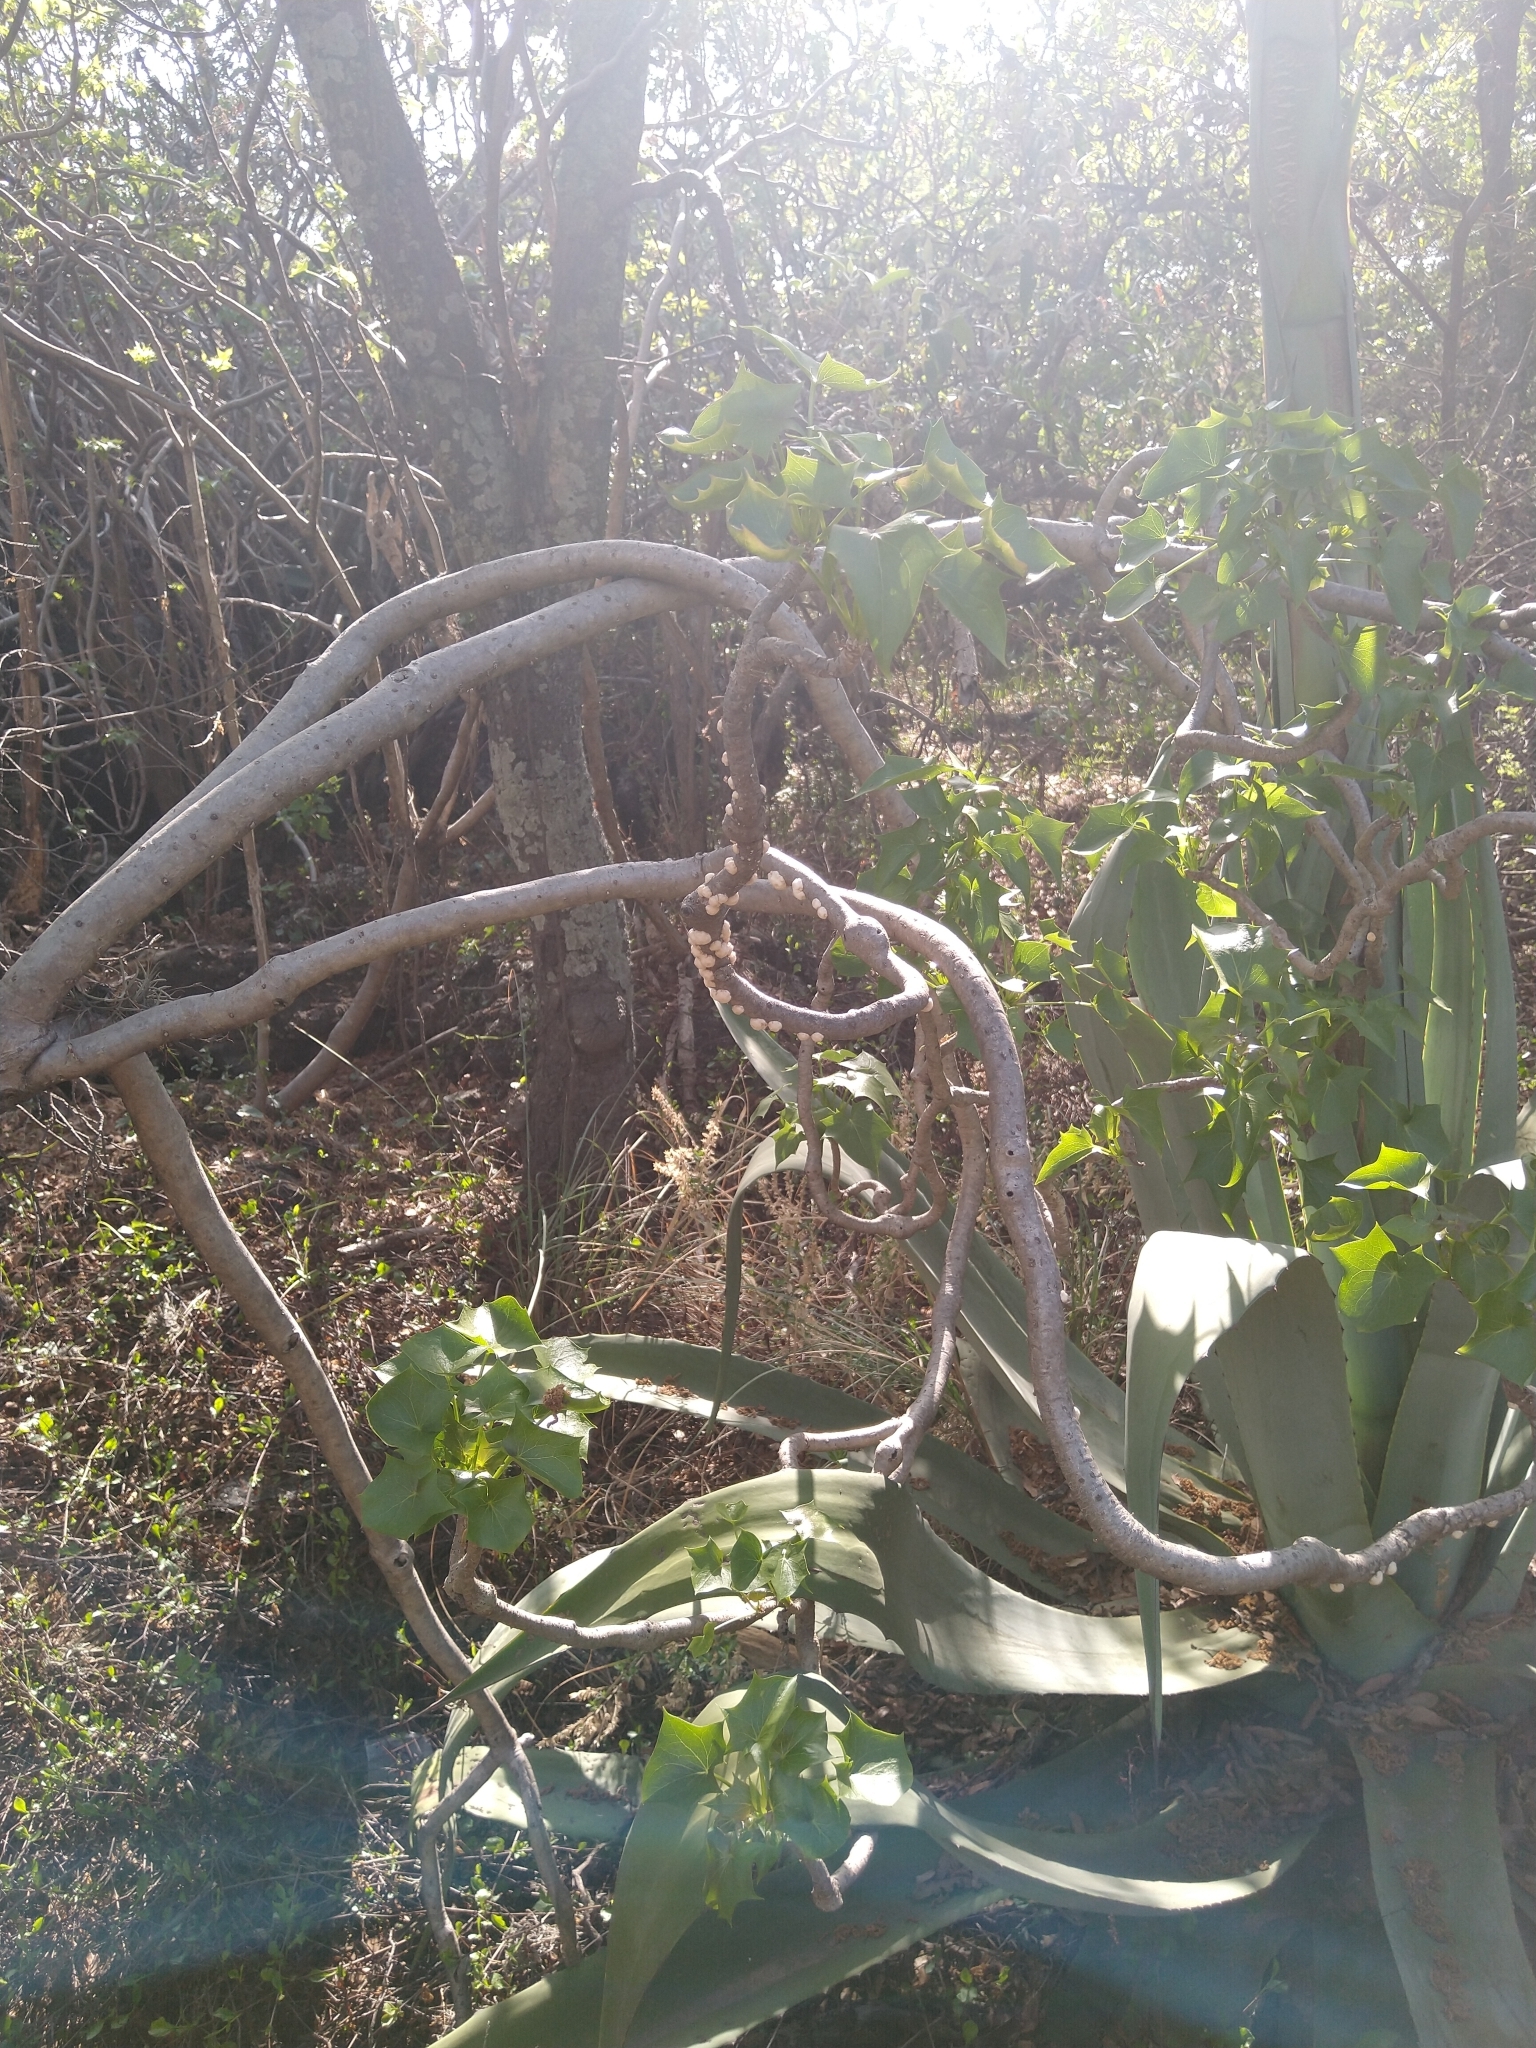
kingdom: Animalia
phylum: Arthropoda
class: Insecta
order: Hemiptera
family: Coccidae
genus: Ceroplastes
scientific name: Ceroplastes albolineatus
